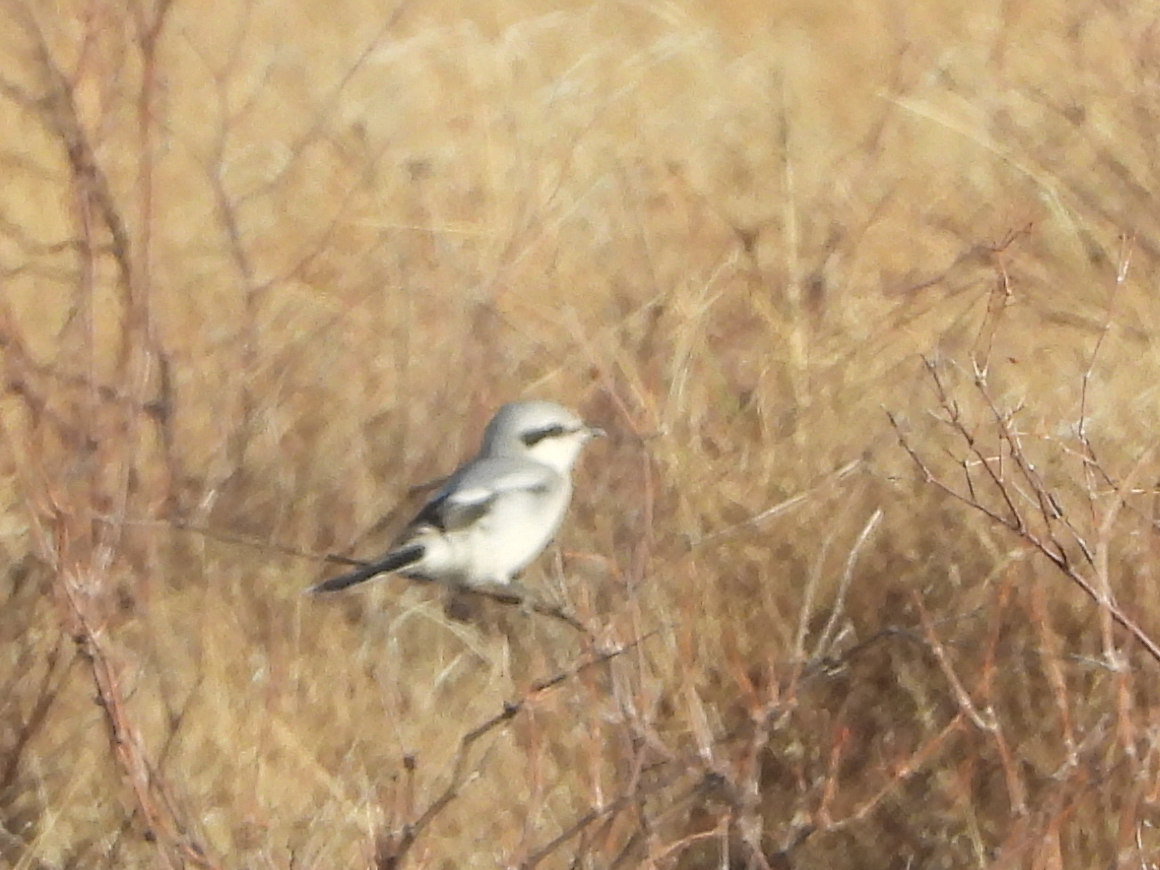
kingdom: Animalia
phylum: Chordata
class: Aves
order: Passeriformes
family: Laniidae
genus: Lanius
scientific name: Lanius excubitor
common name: Great grey shrike
